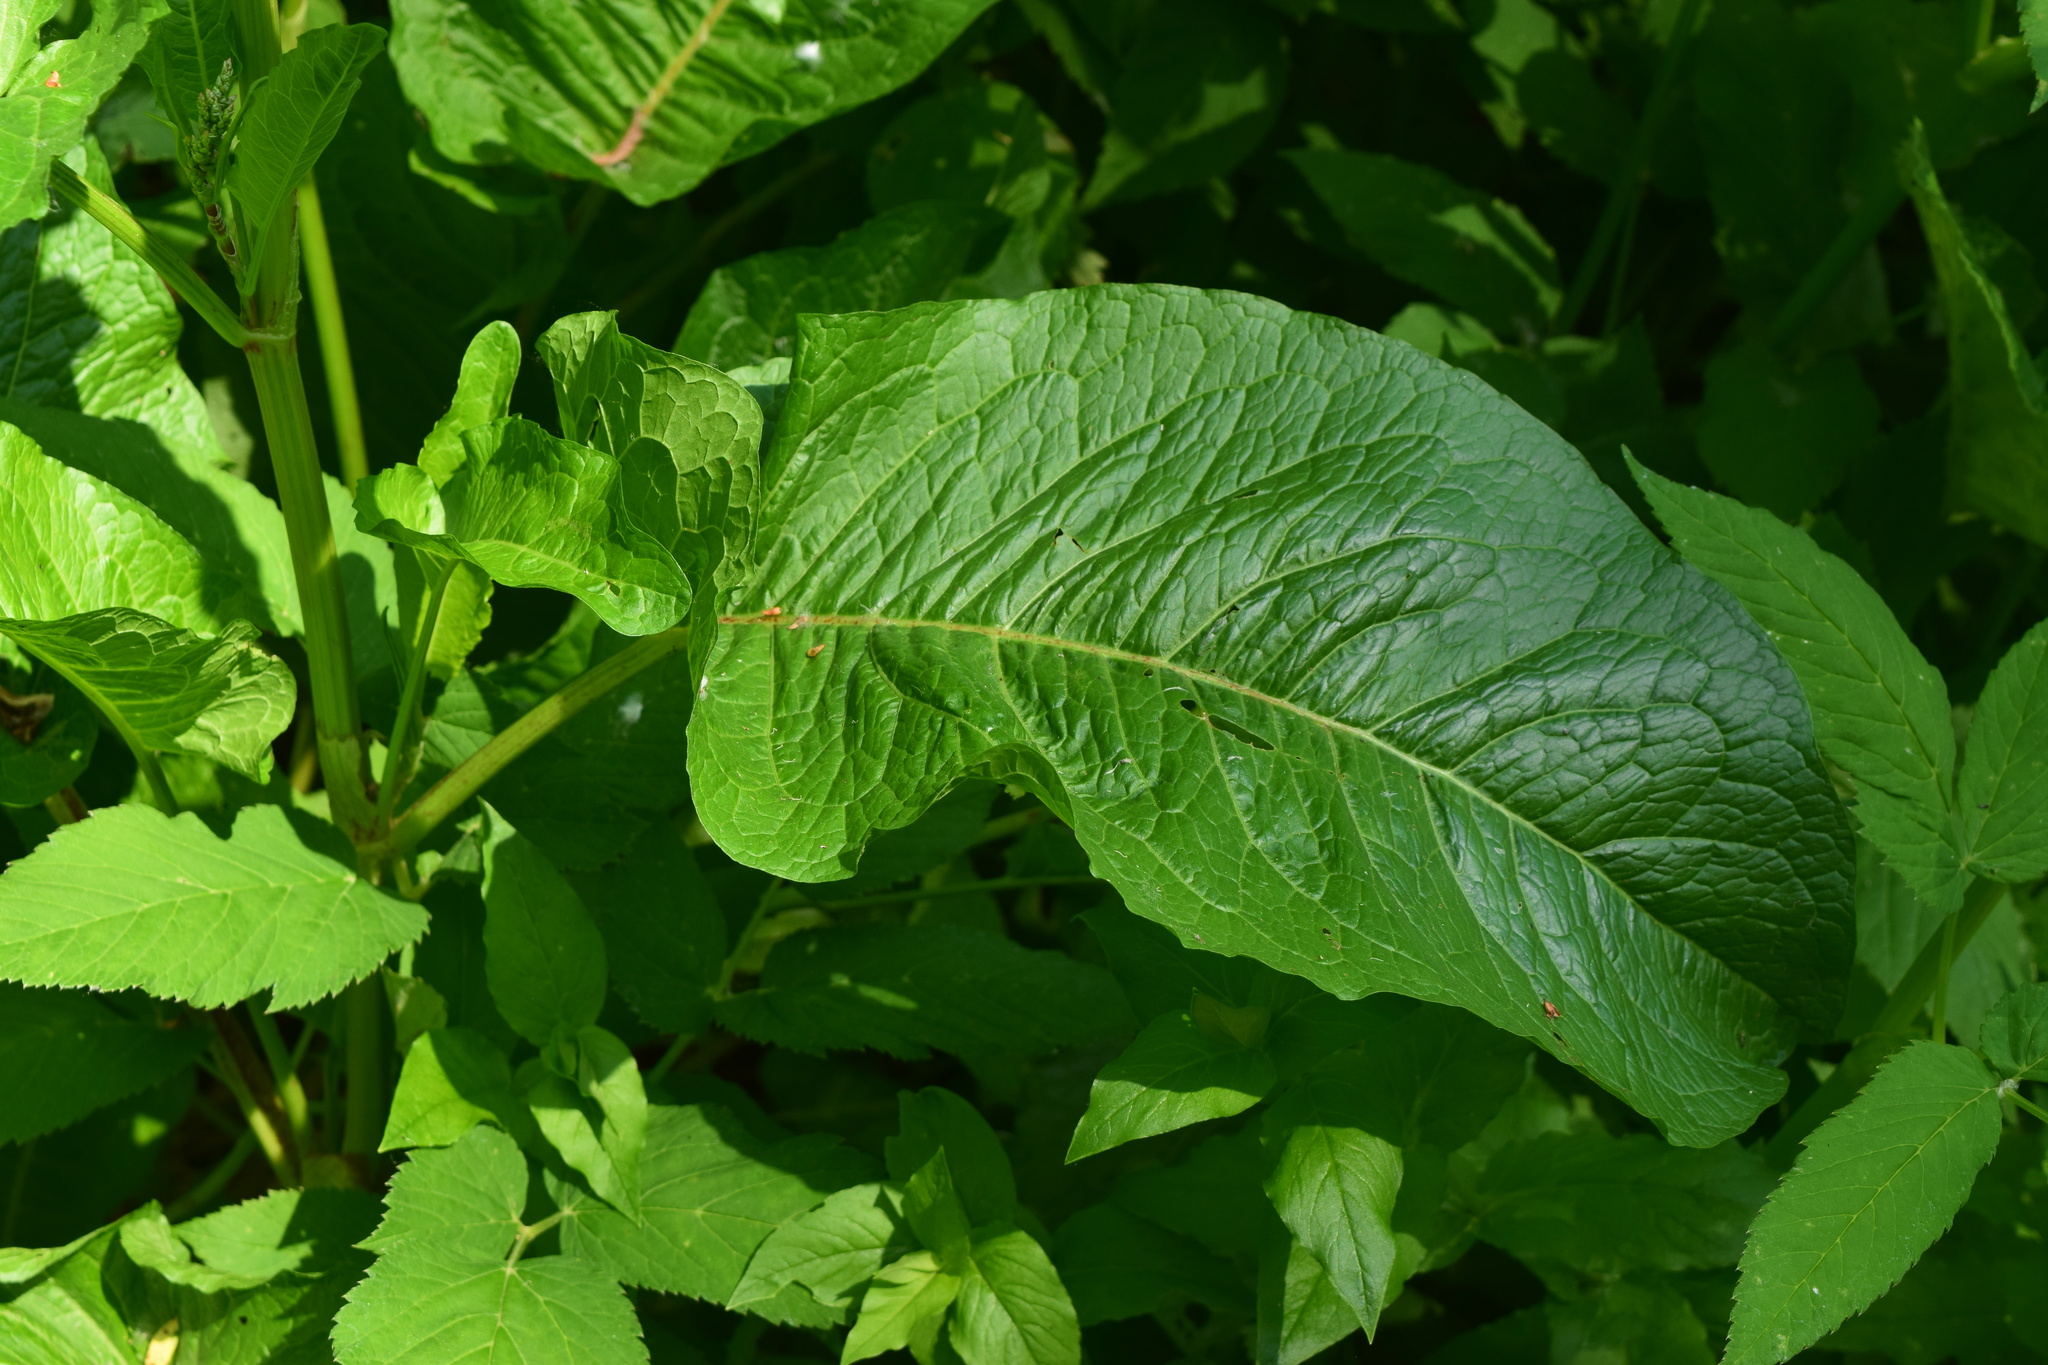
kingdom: Plantae
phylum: Tracheophyta
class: Magnoliopsida
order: Caryophyllales
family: Polygonaceae
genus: Rumex
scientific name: Rumex obtusifolius
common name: Bitter dock
